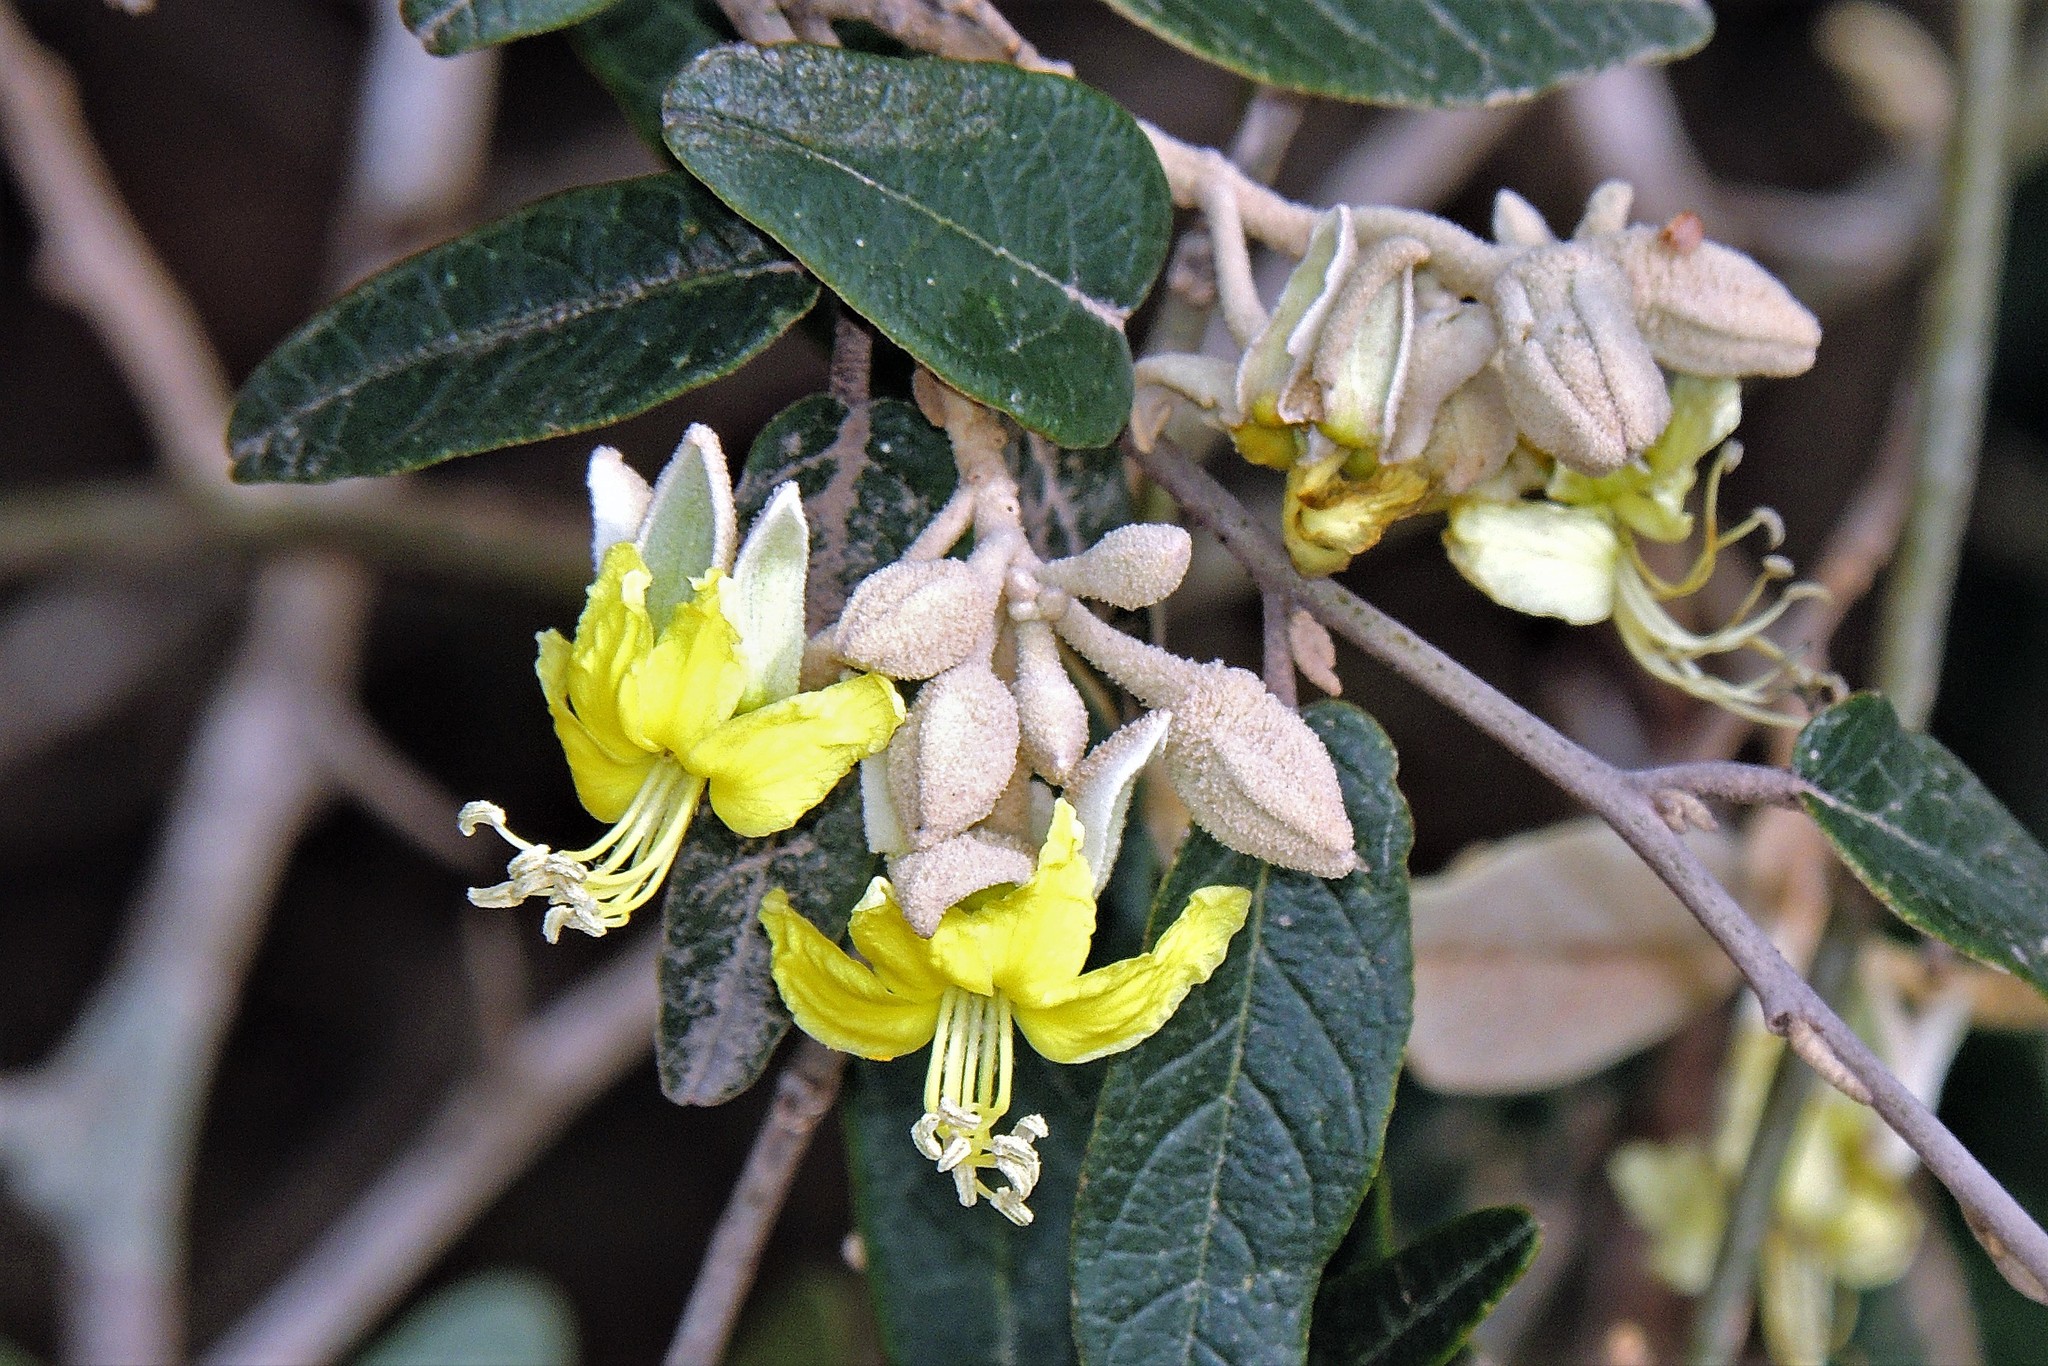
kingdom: Plantae
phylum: Tracheophyta
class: Magnoliopsida
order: Brassicales
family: Capparaceae
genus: Sarcotoxicum
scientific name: Sarcotoxicum salicifolium
